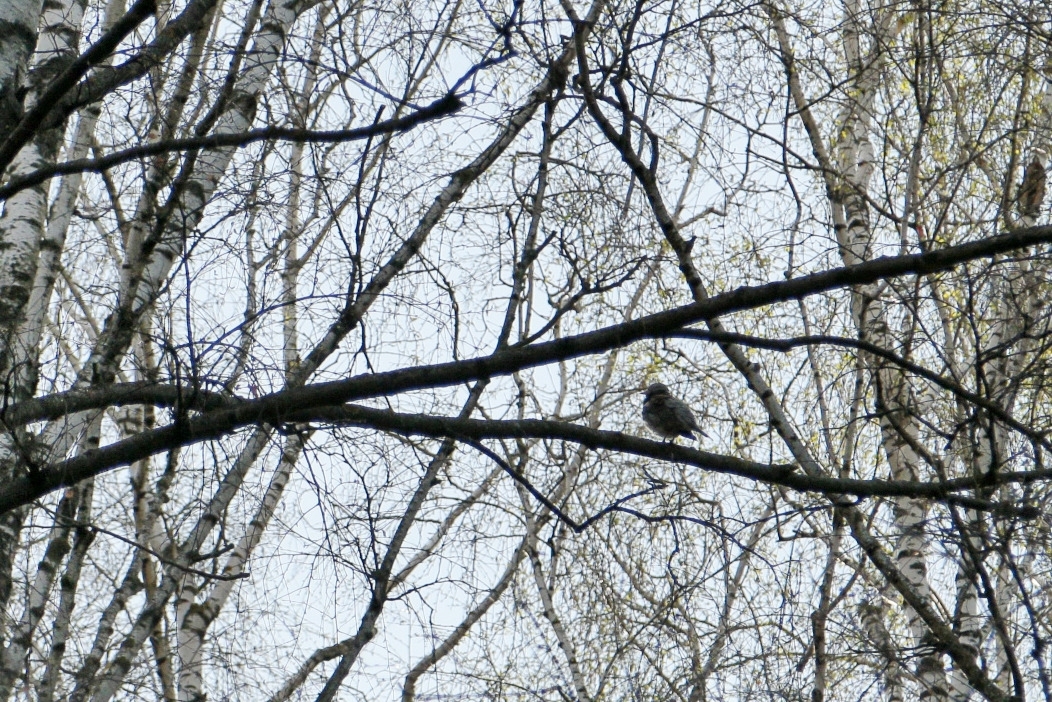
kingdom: Animalia
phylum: Chordata
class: Aves
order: Passeriformes
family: Sturnidae
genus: Sturnus
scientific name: Sturnus vulgaris
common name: Common starling
